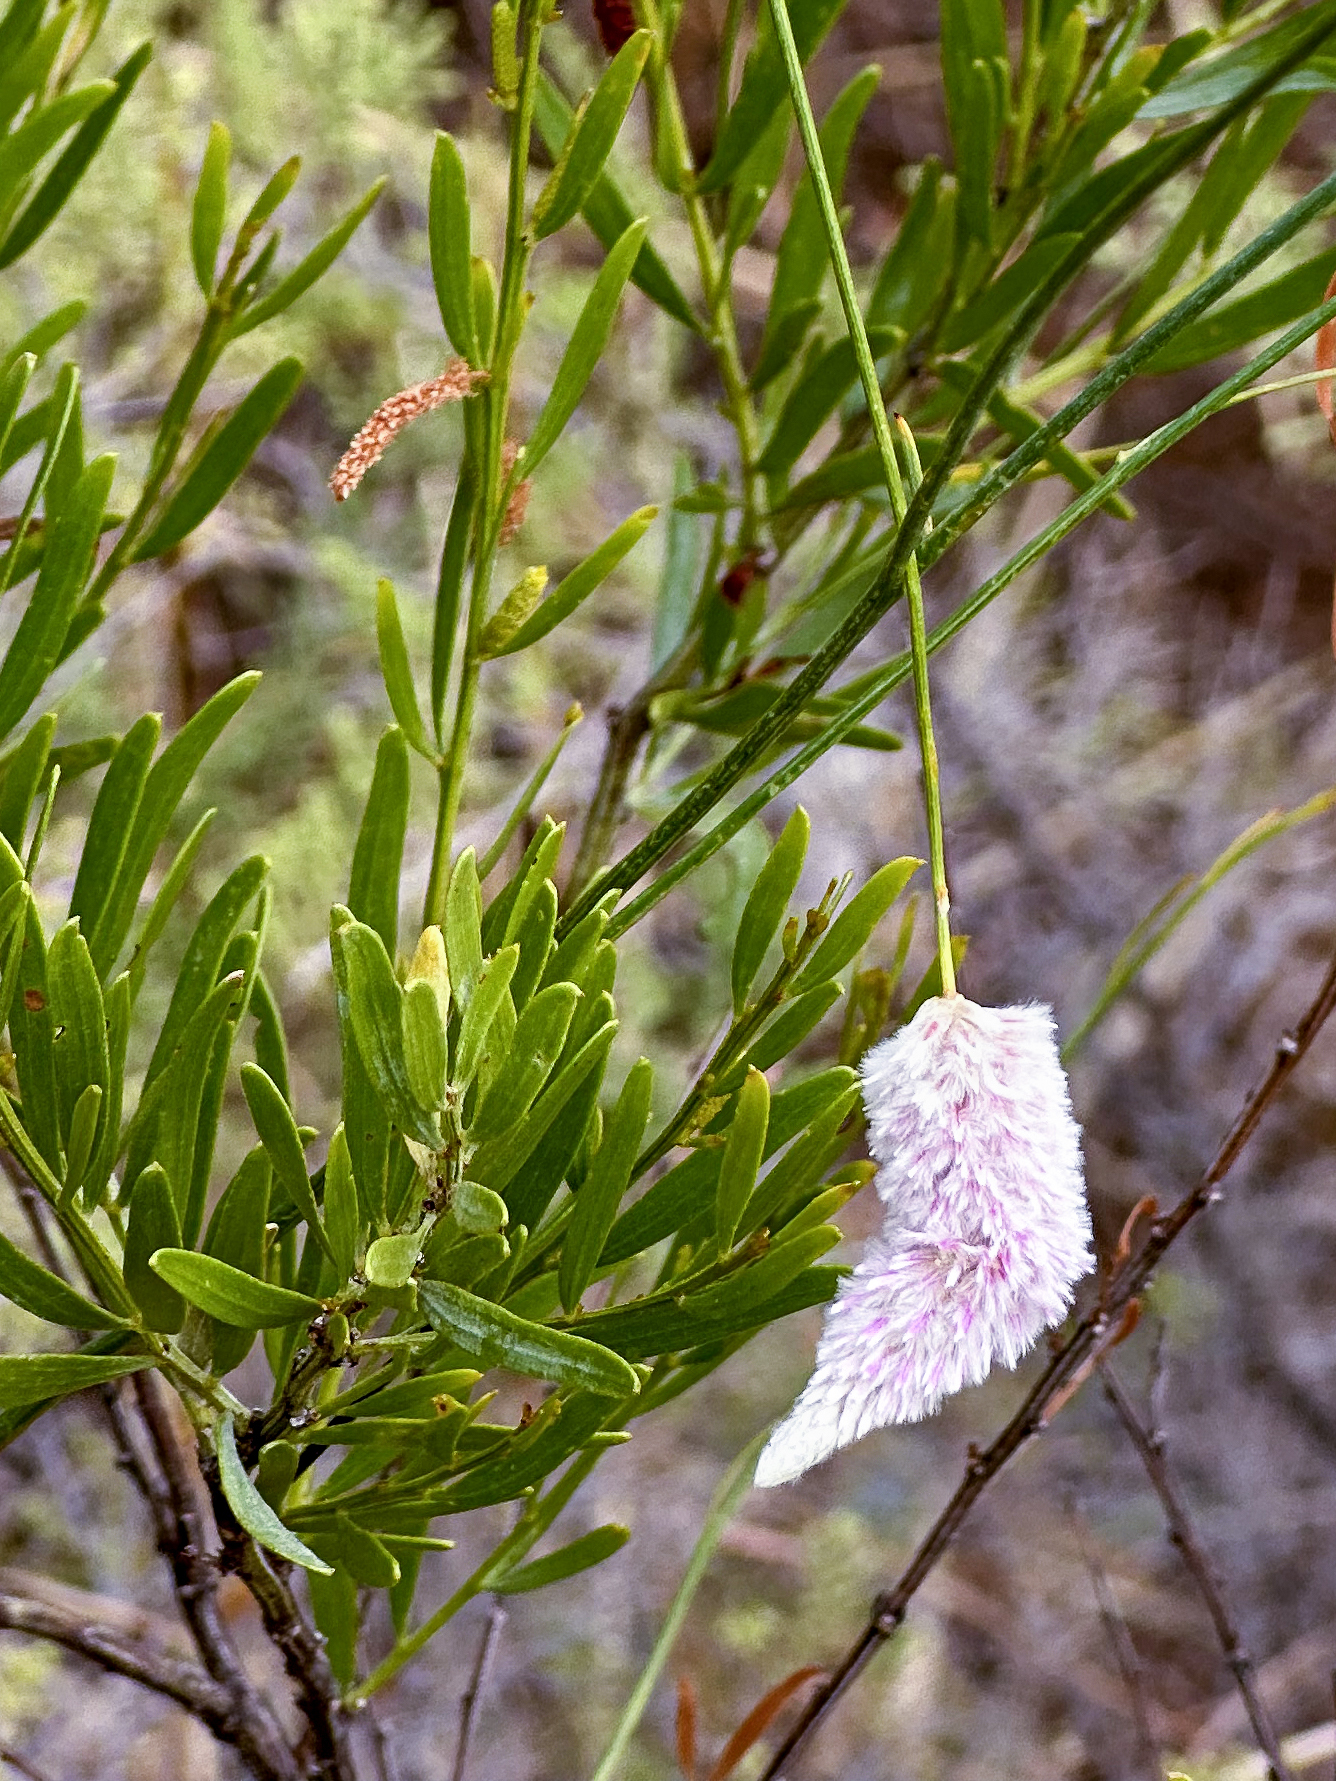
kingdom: Plantae
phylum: Tracheophyta
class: Magnoliopsida
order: Caryophyllales
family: Amaranthaceae
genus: Ptilotus
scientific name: Ptilotus calostachyus
